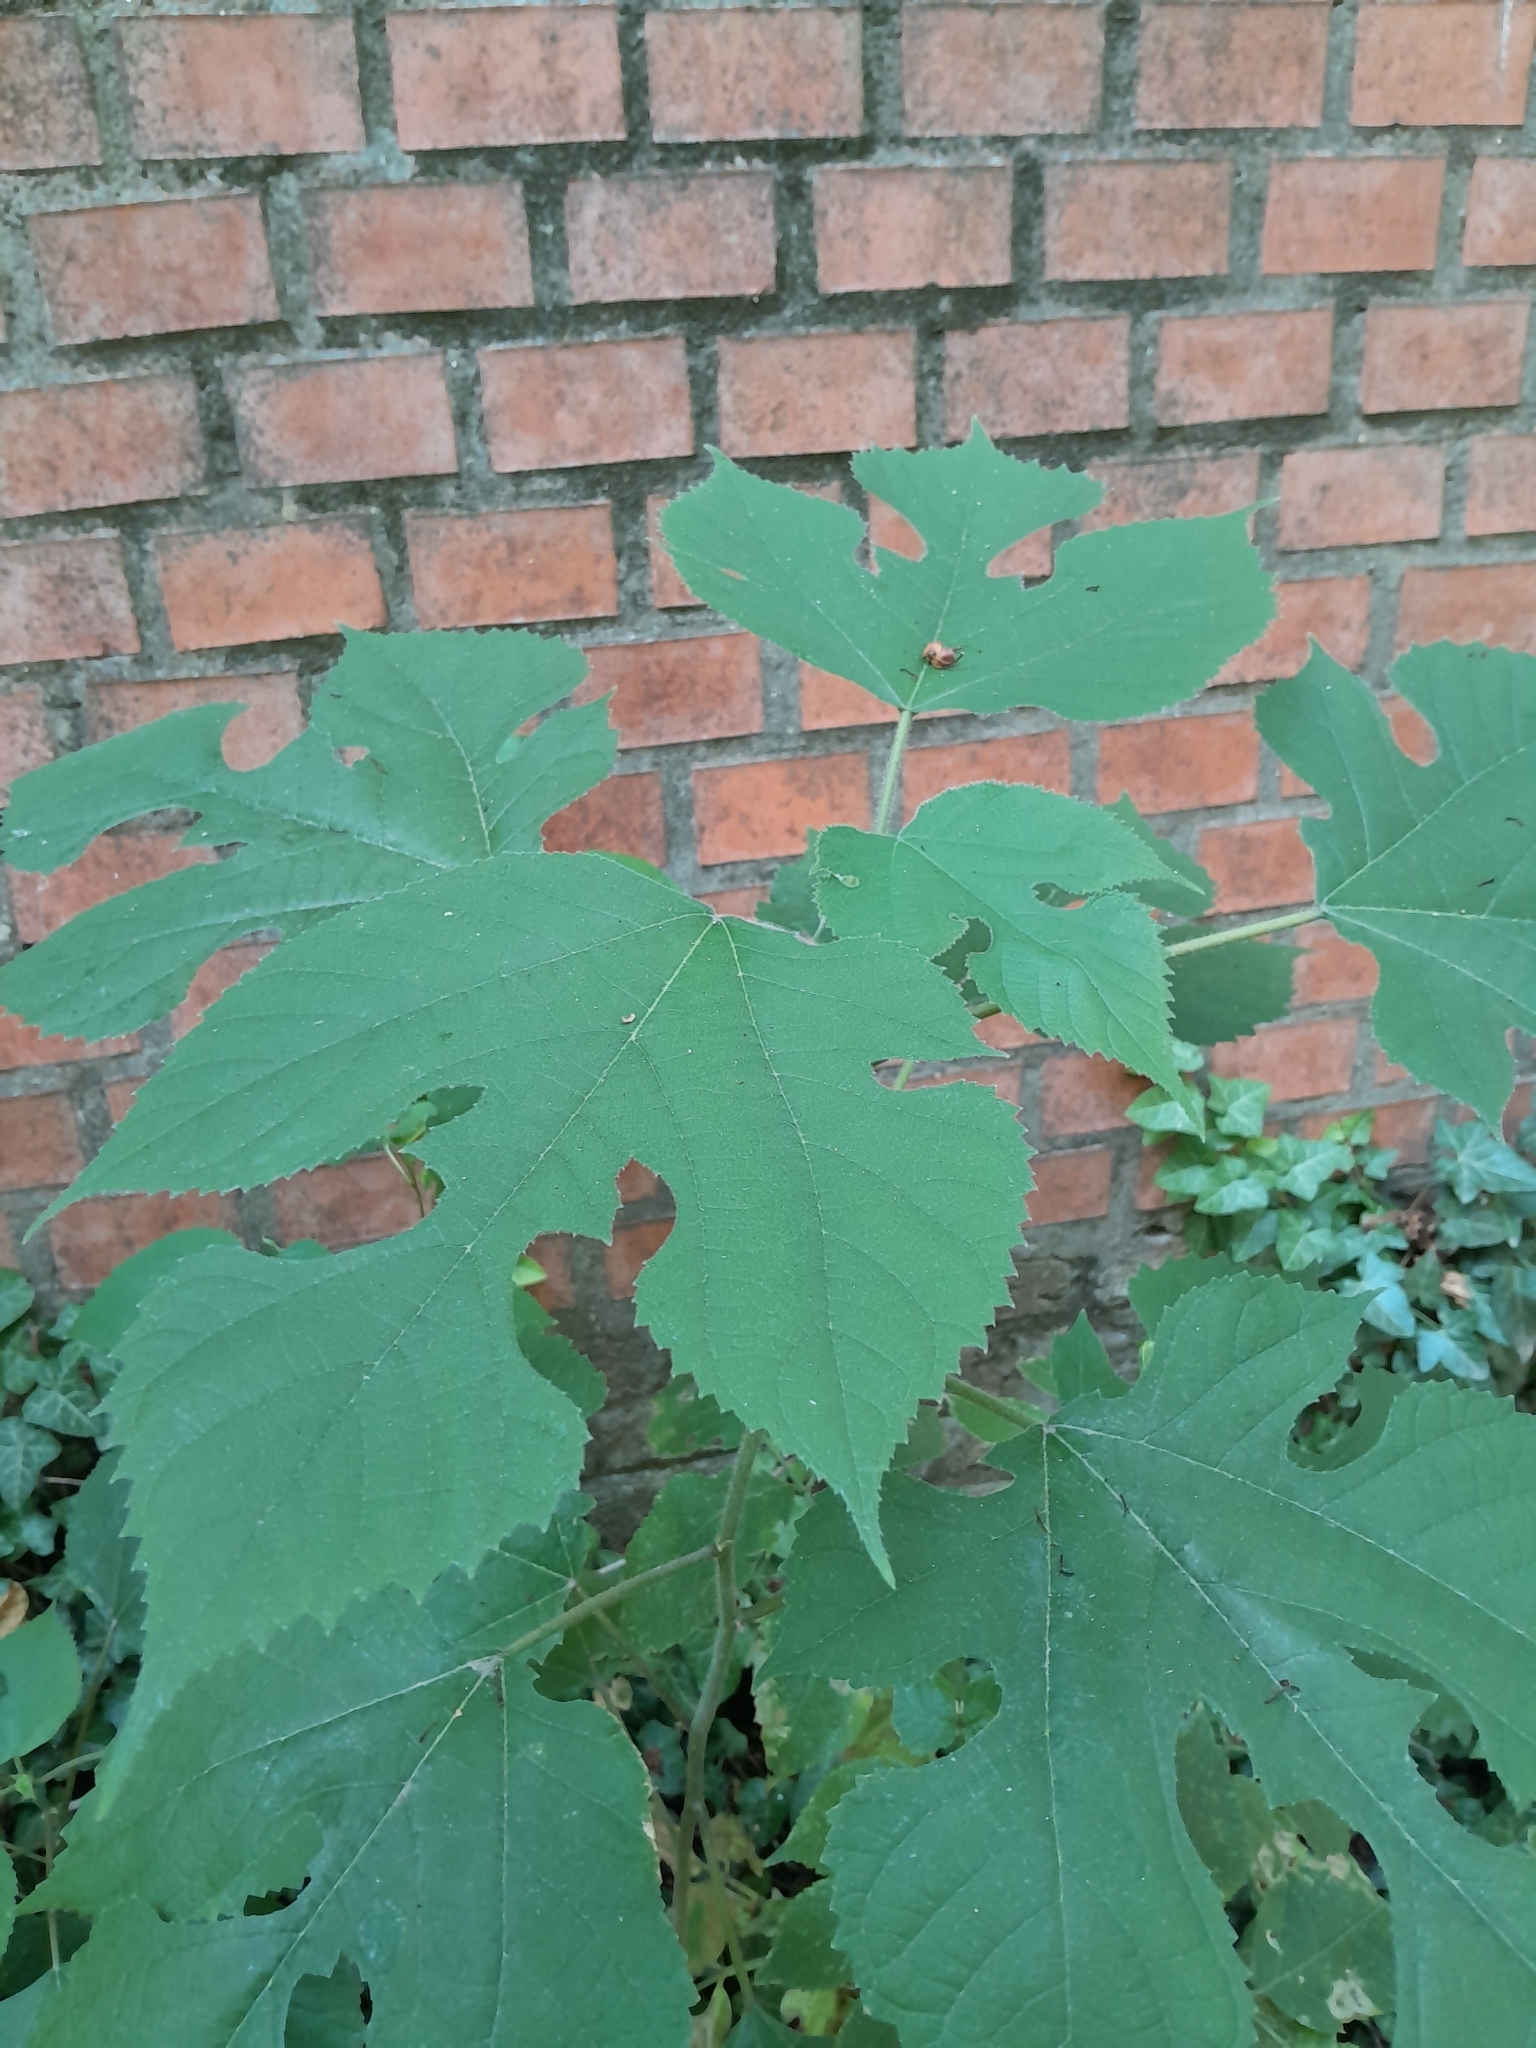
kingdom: Plantae
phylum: Tracheophyta
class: Magnoliopsida
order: Rosales
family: Moraceae
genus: Broussonetia
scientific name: Broussonetia papyrifera
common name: Paper mulberry
